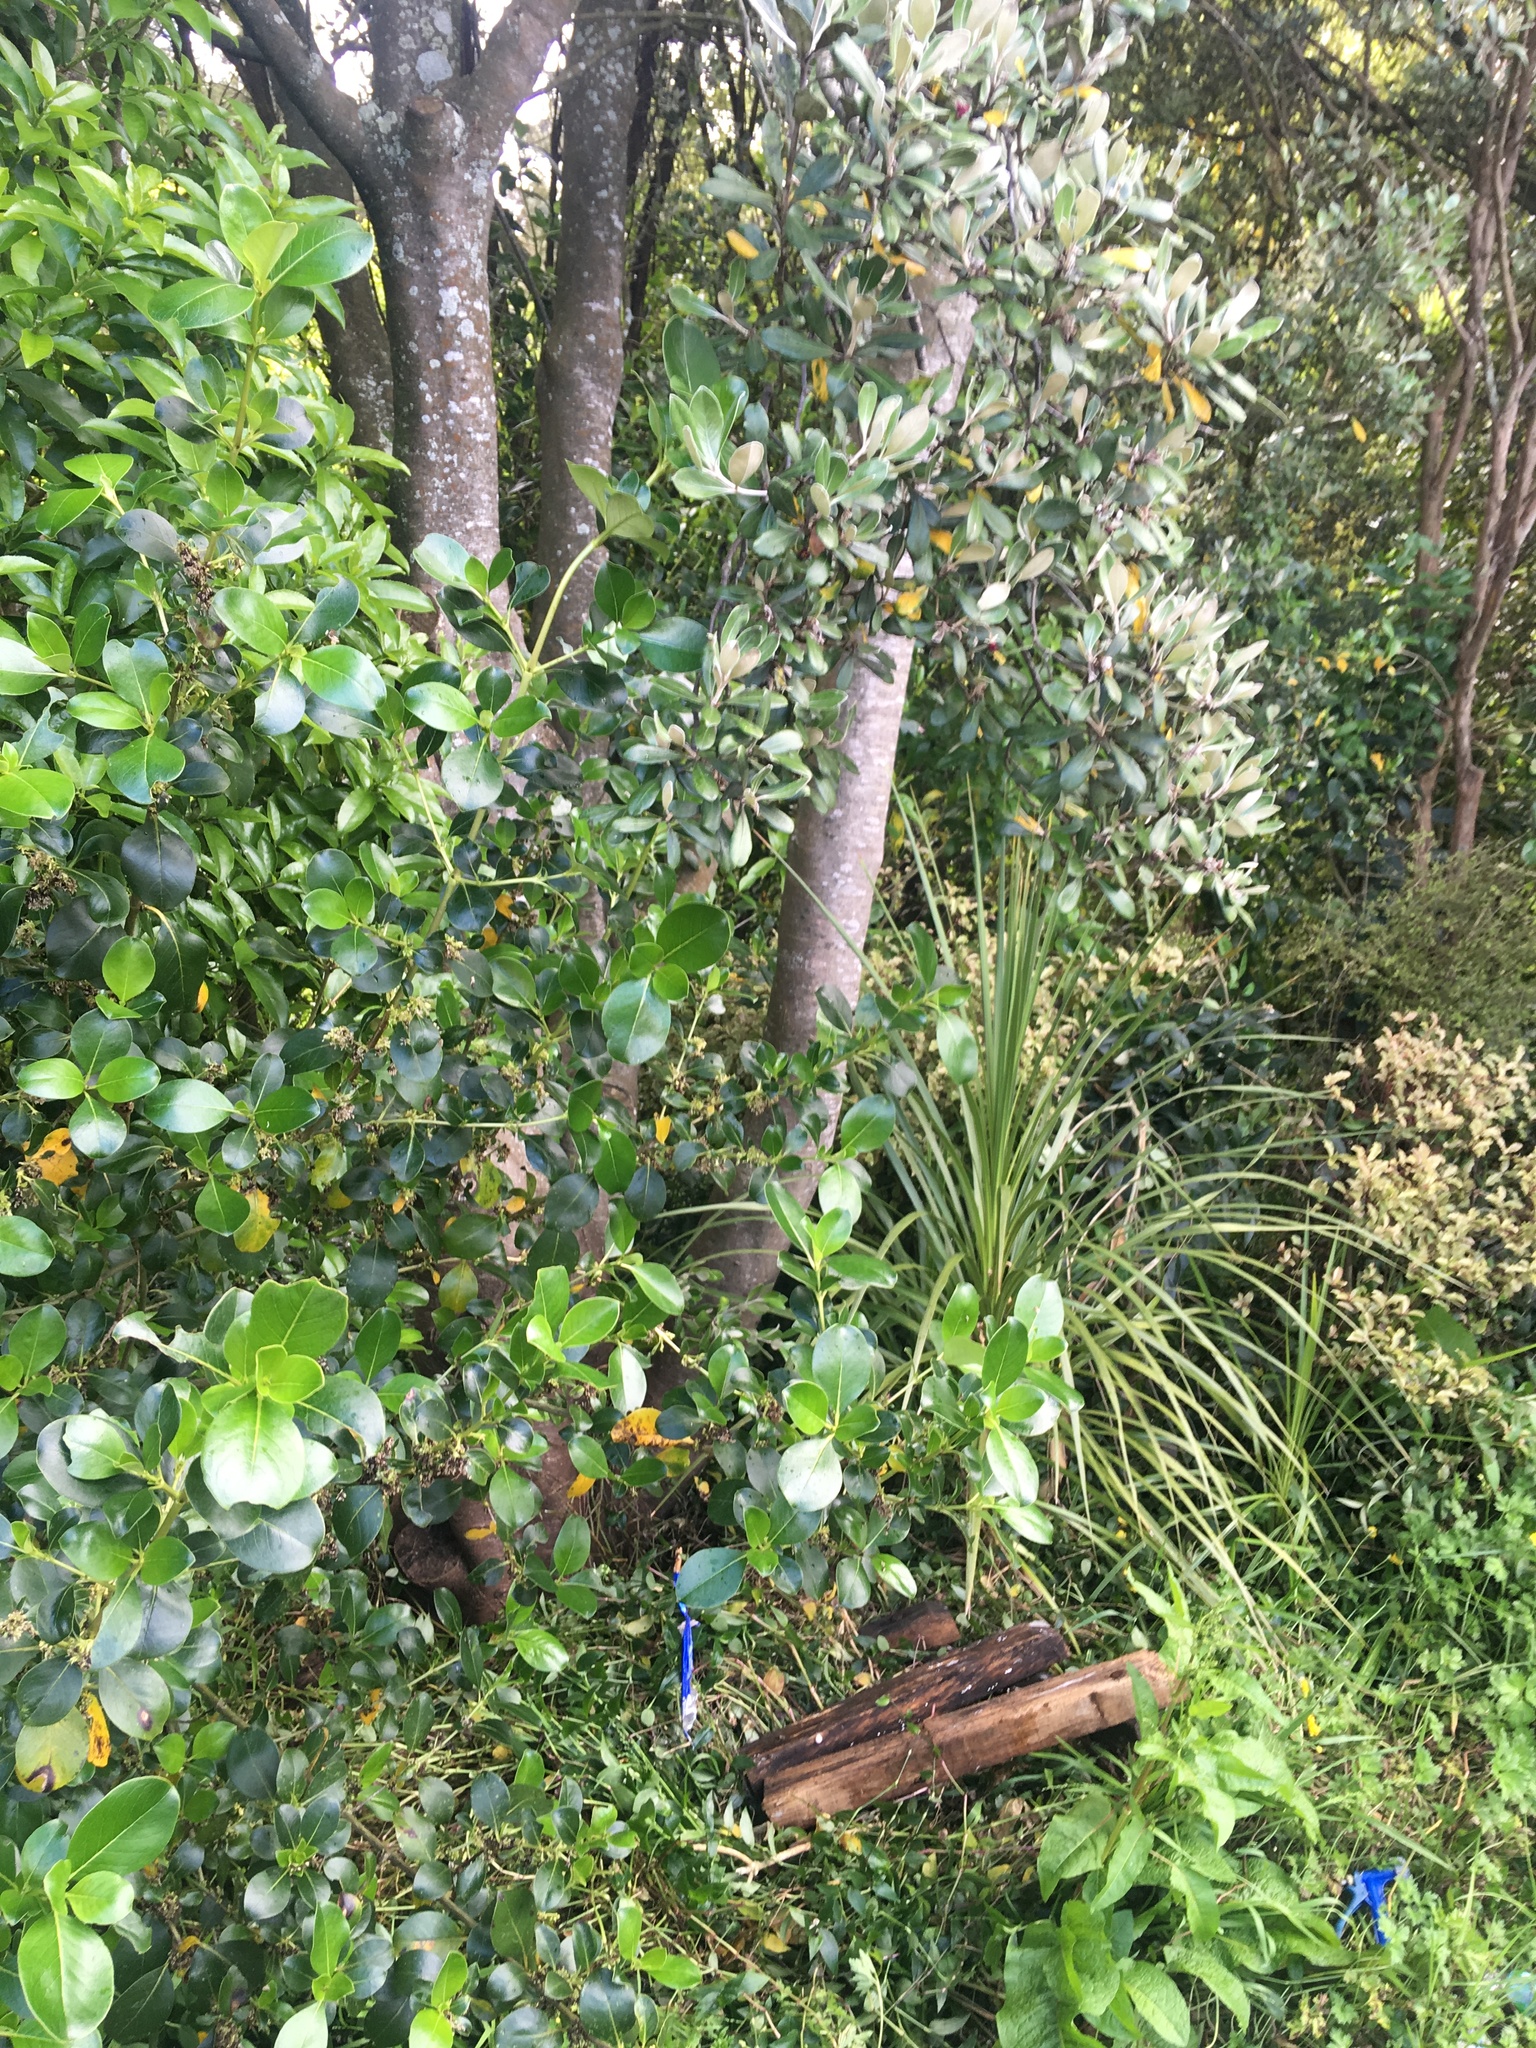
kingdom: Plantae
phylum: Tracheophyta
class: Magnoliopsida
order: Gentianales
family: Rubiaceae
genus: Coprosma
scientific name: Coprosma robusta
